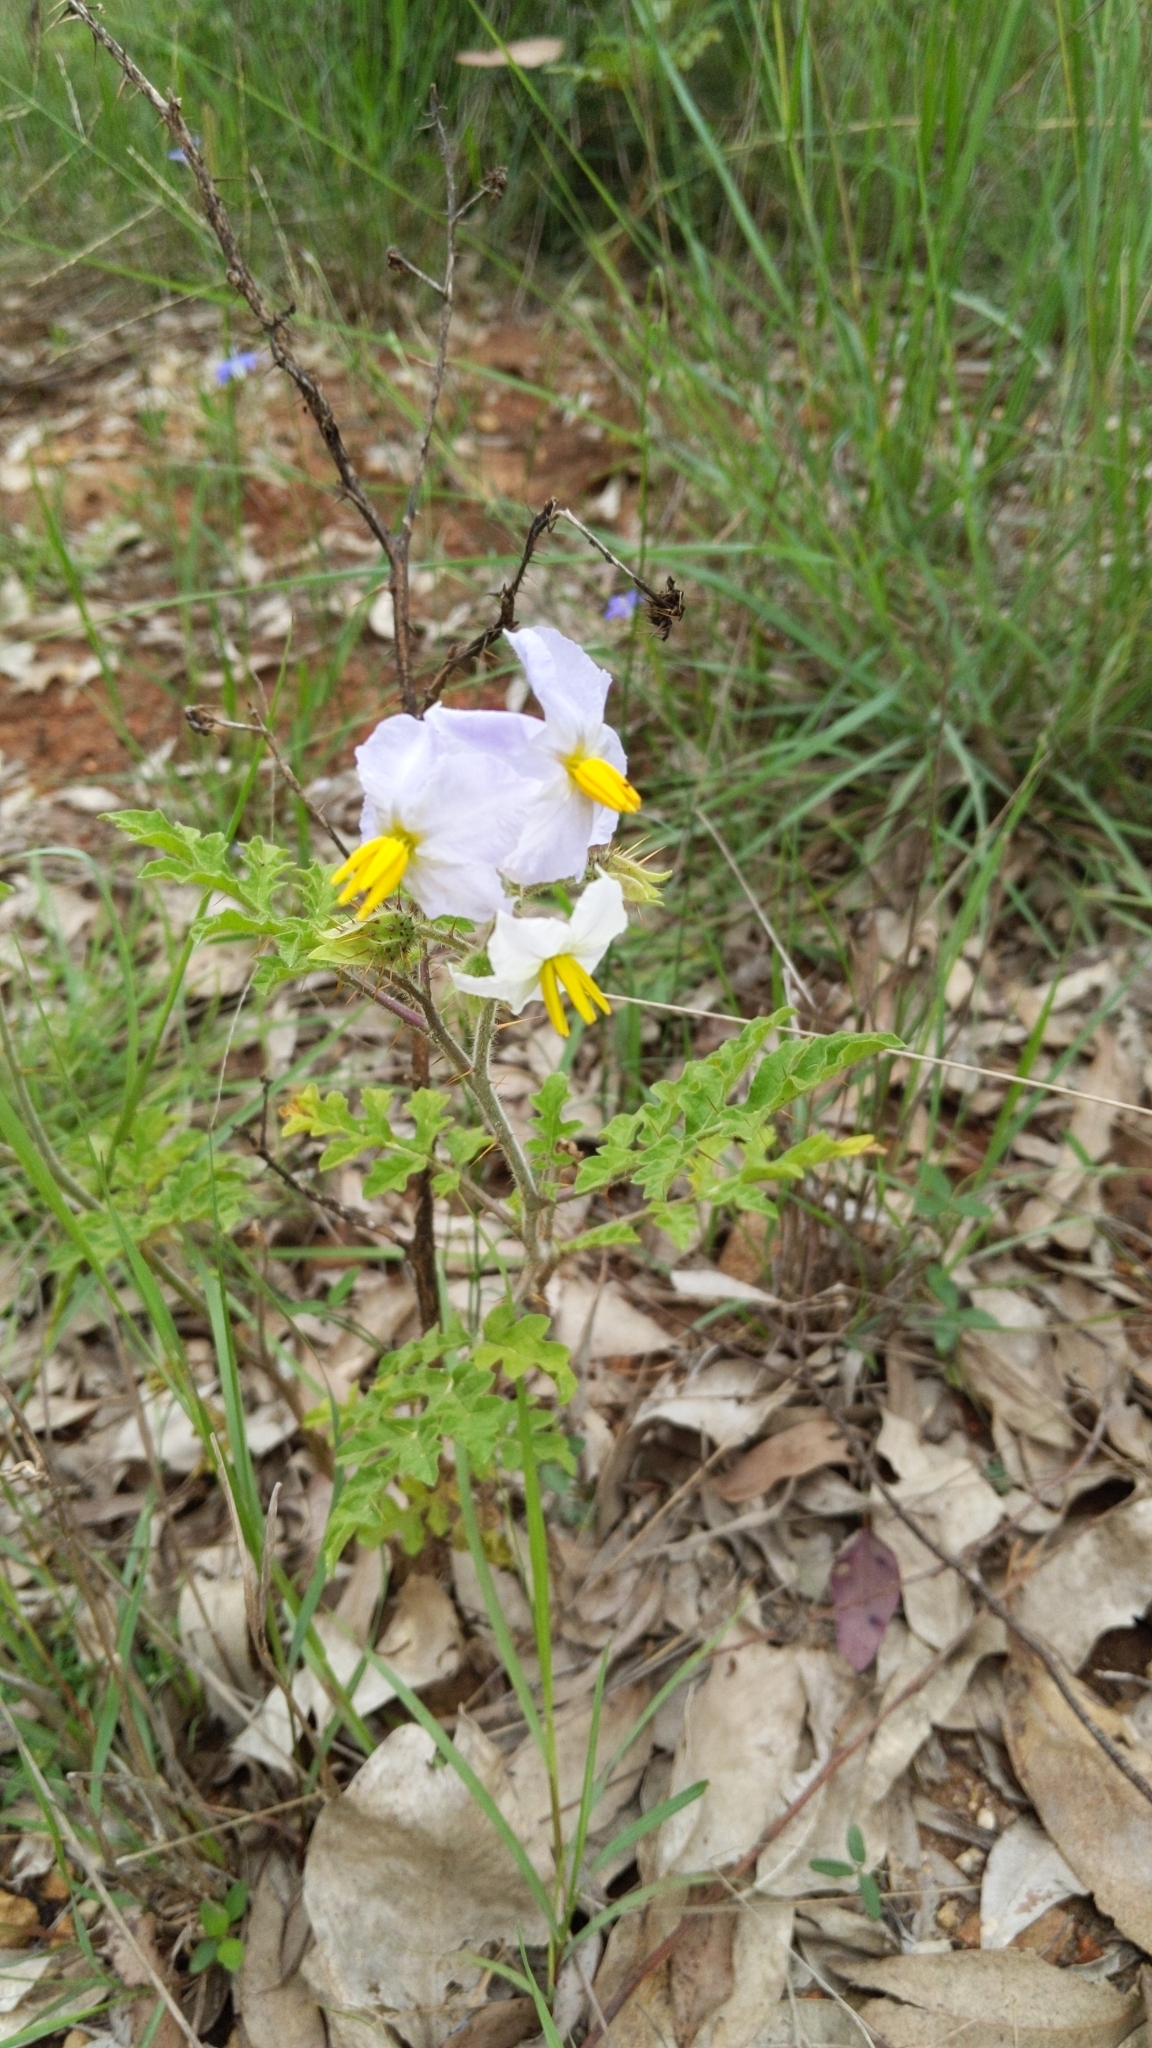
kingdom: Plantae
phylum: Tracheophyta
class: Magnoliopsida
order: Solanales
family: Solanaceae
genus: Solanum
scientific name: Solanum sisymbriifolium
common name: Red buffalo-bur
